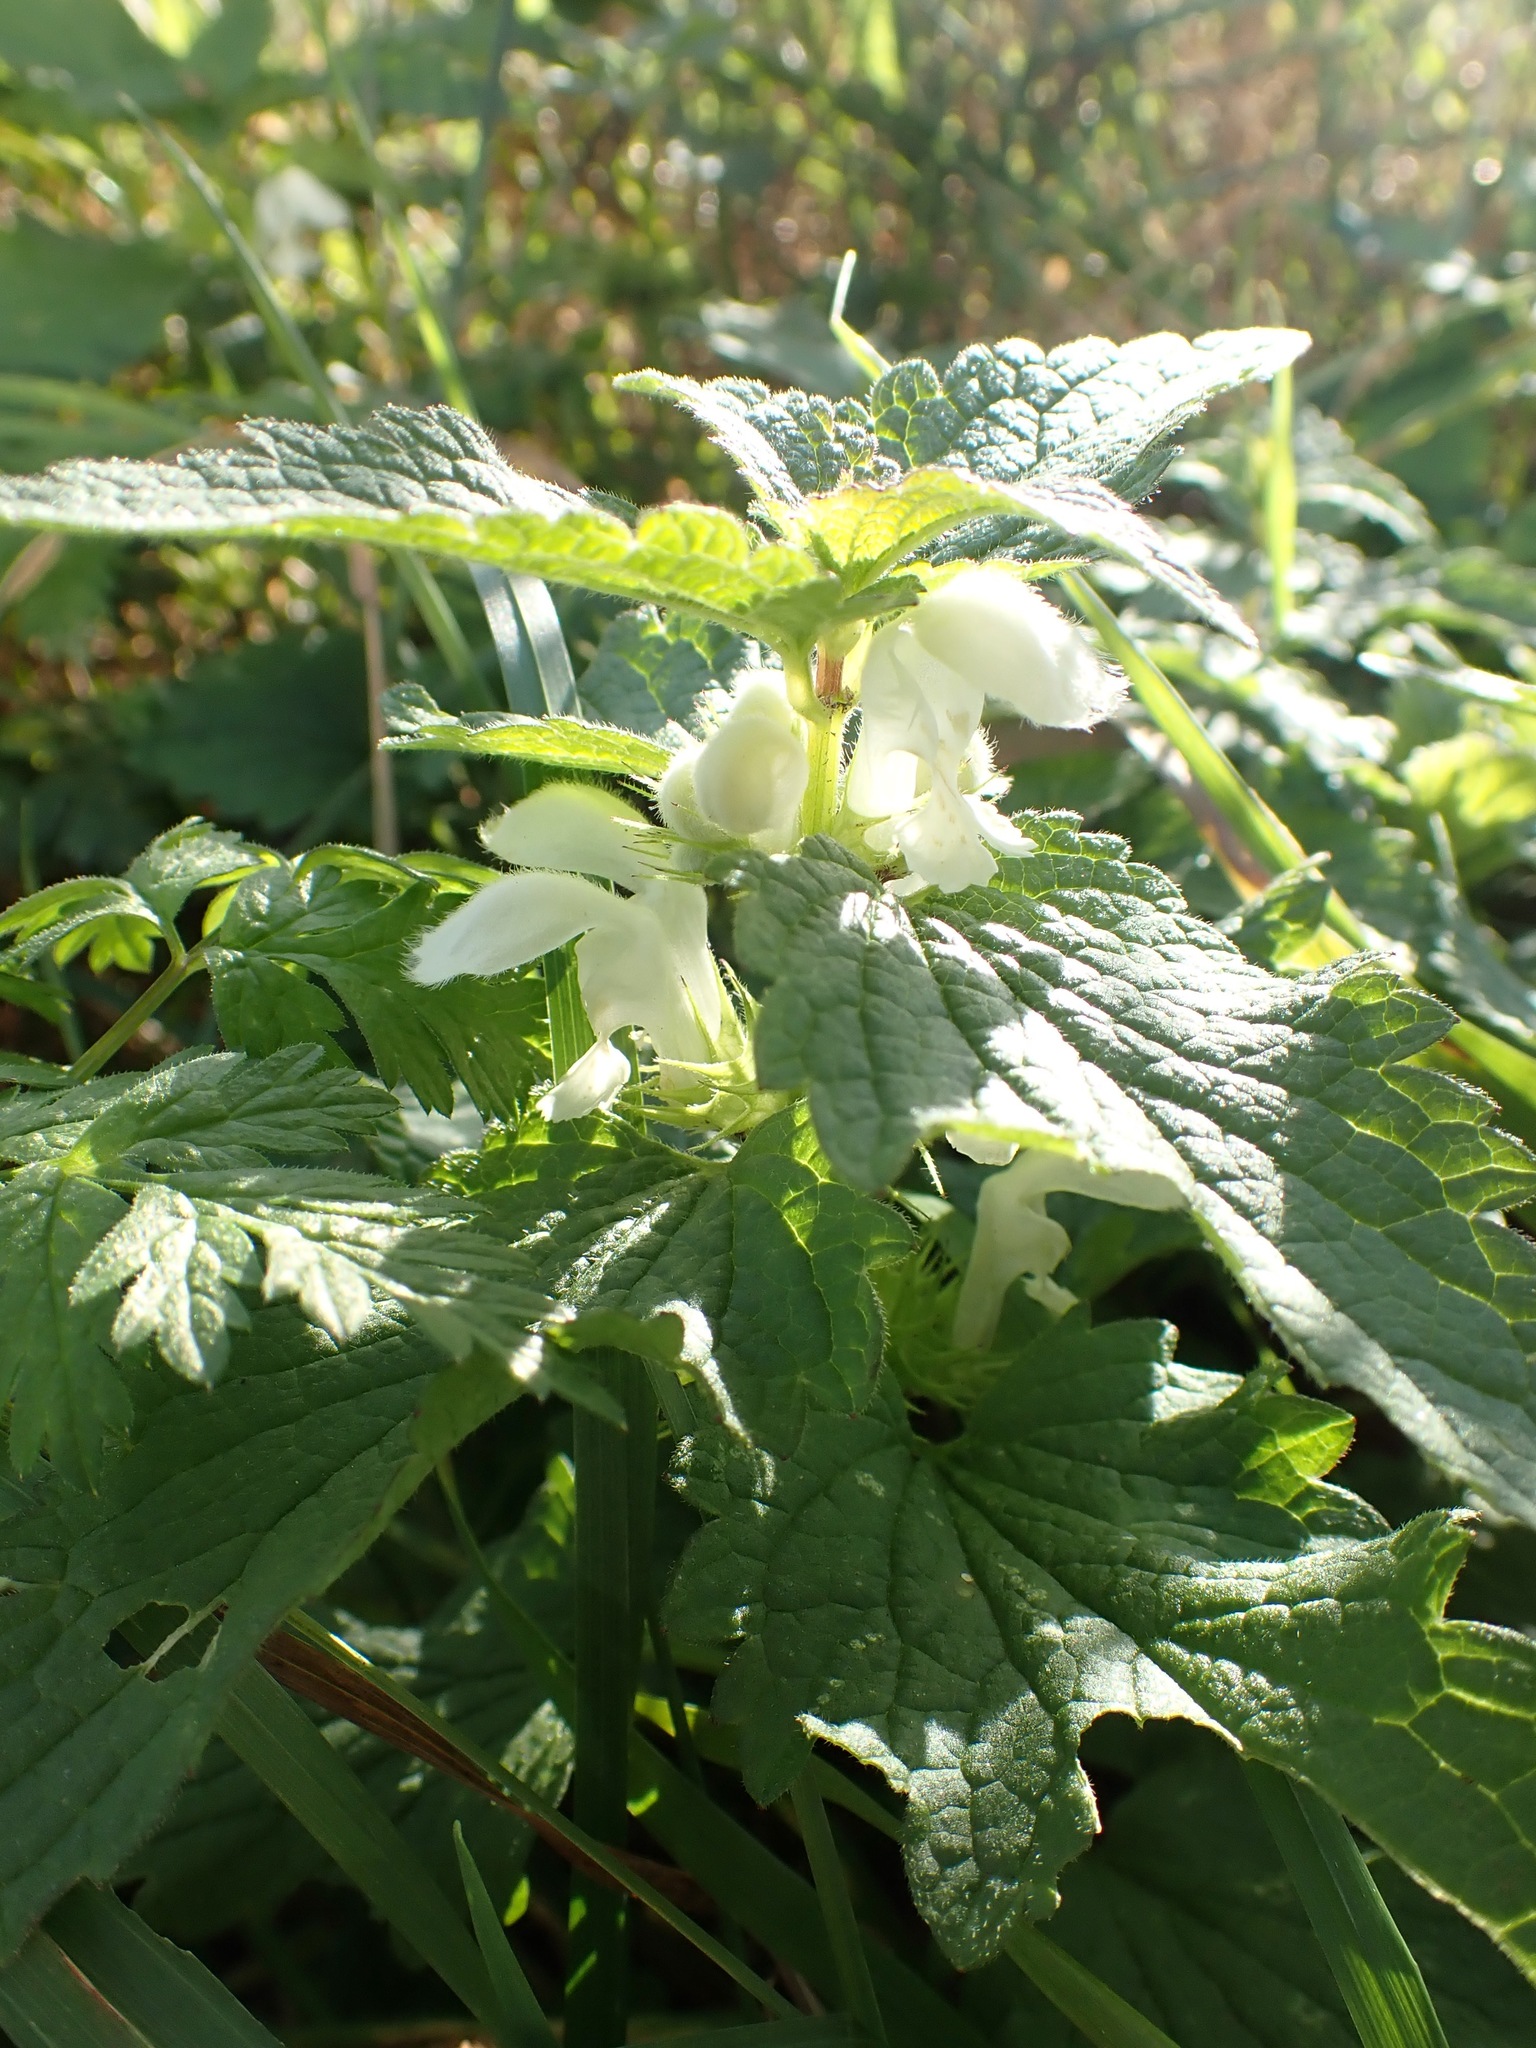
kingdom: Plantae
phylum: Tracheophyta
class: Magnoliopsida
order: Lamiales
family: Lamiaceae
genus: Lamium
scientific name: Lamium album
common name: White dead-nettle
